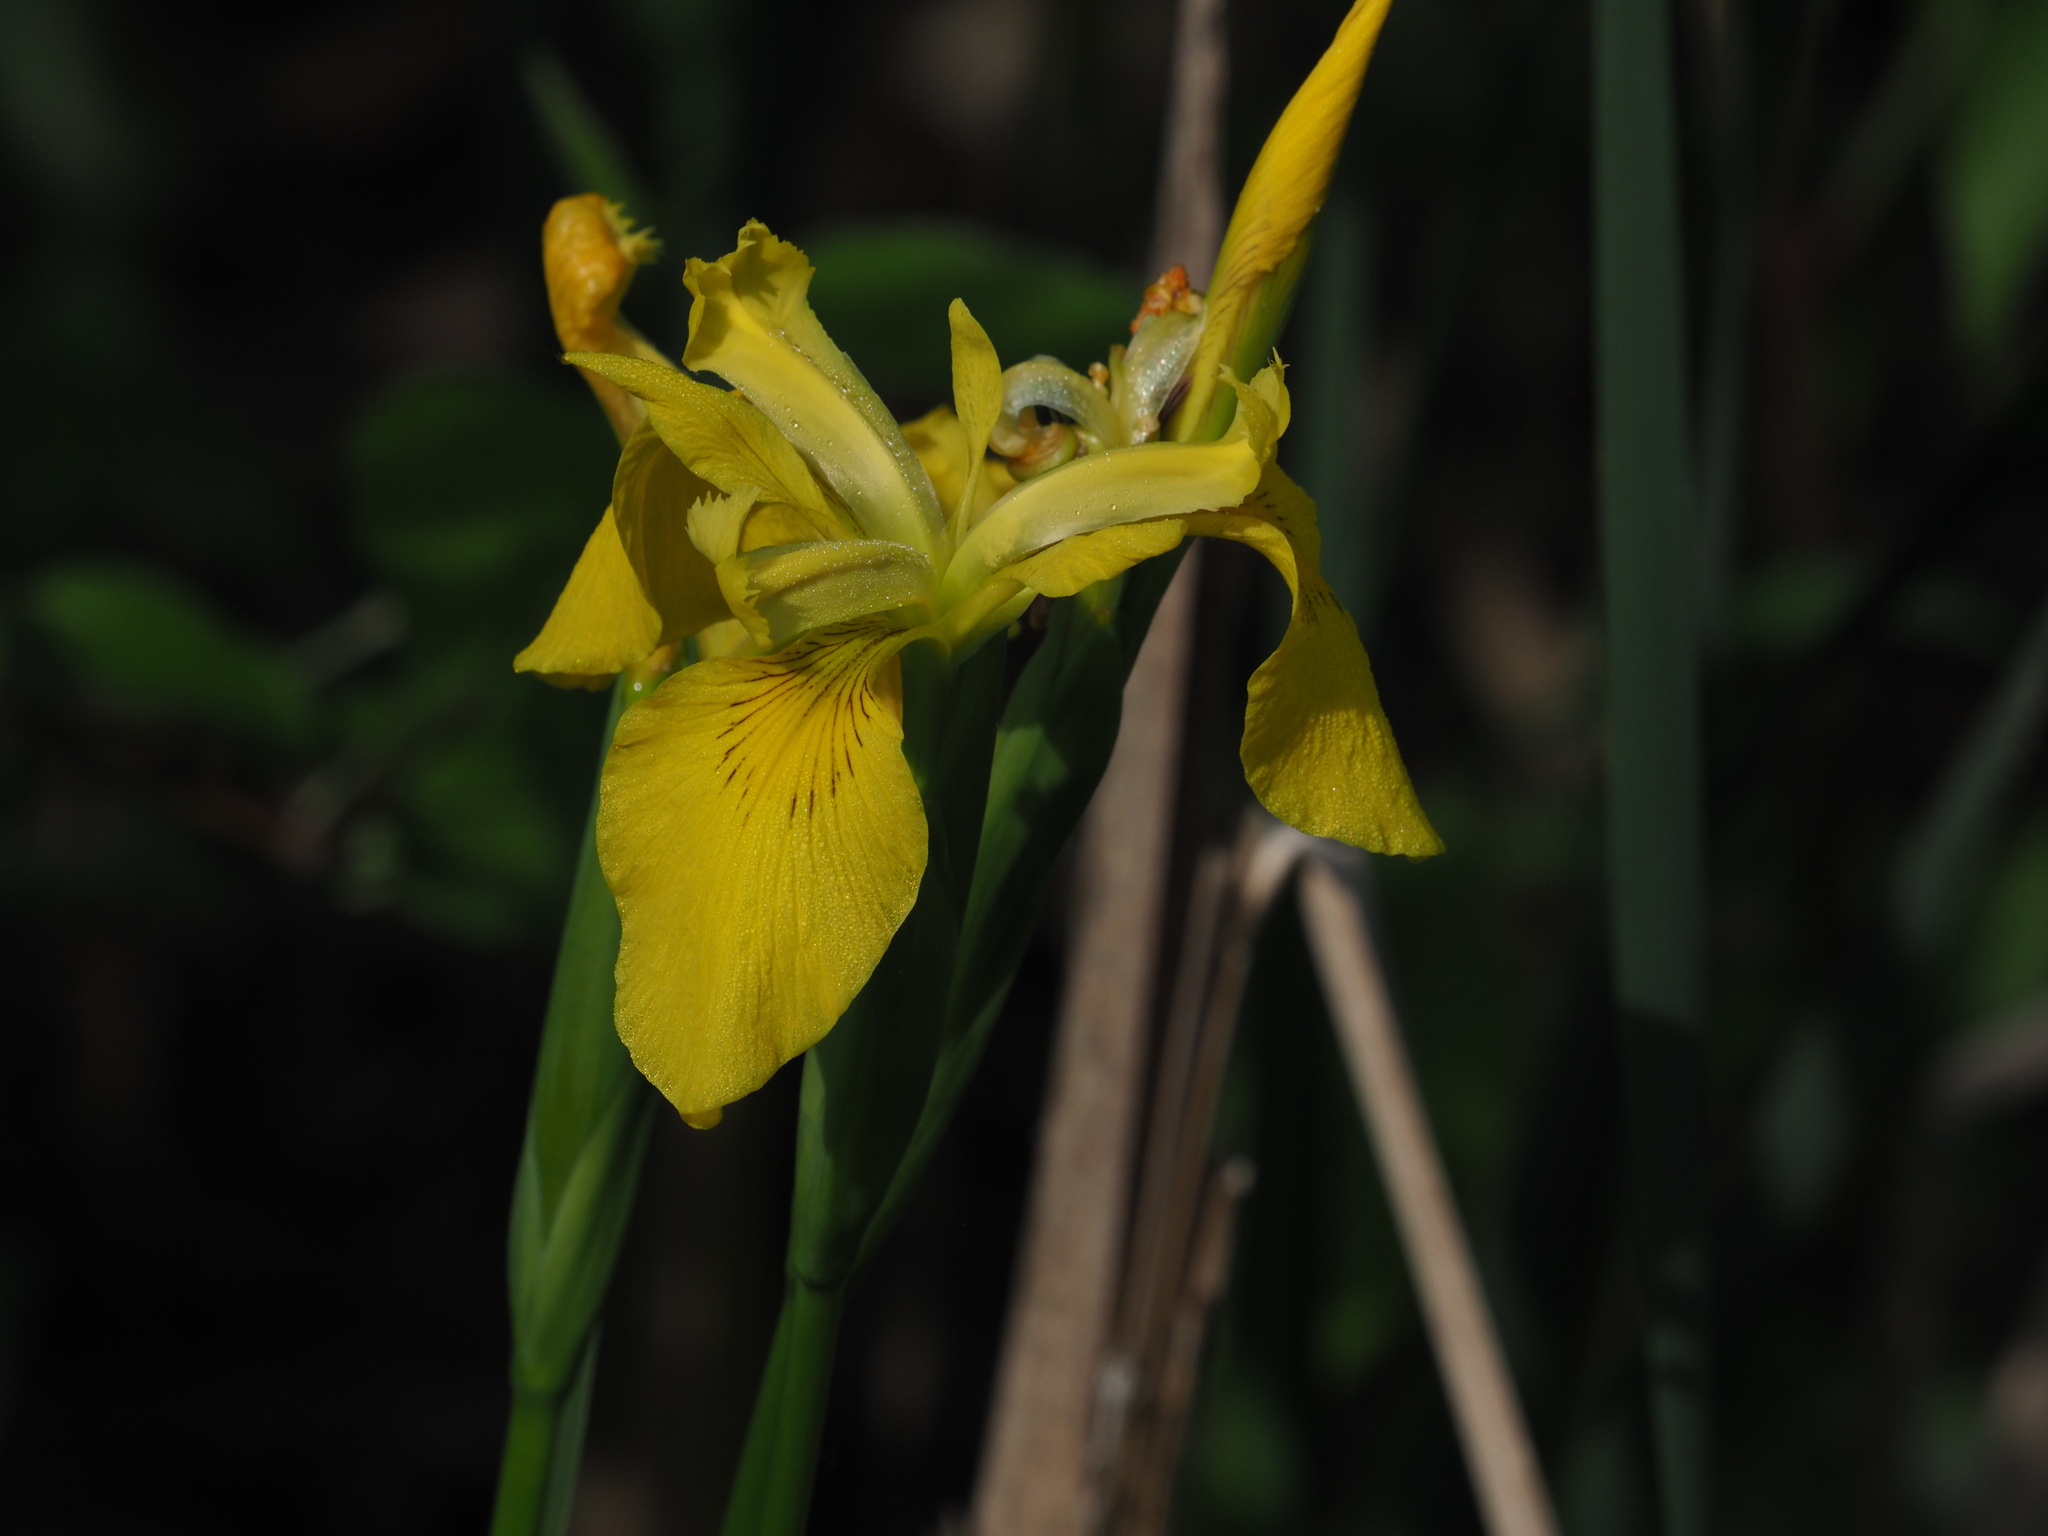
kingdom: Plantae
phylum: Tracheophyta
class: Liliopsida
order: Asparagales
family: Iridaceae
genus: Iris
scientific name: Iris pseudacorus
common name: Yellow flag
